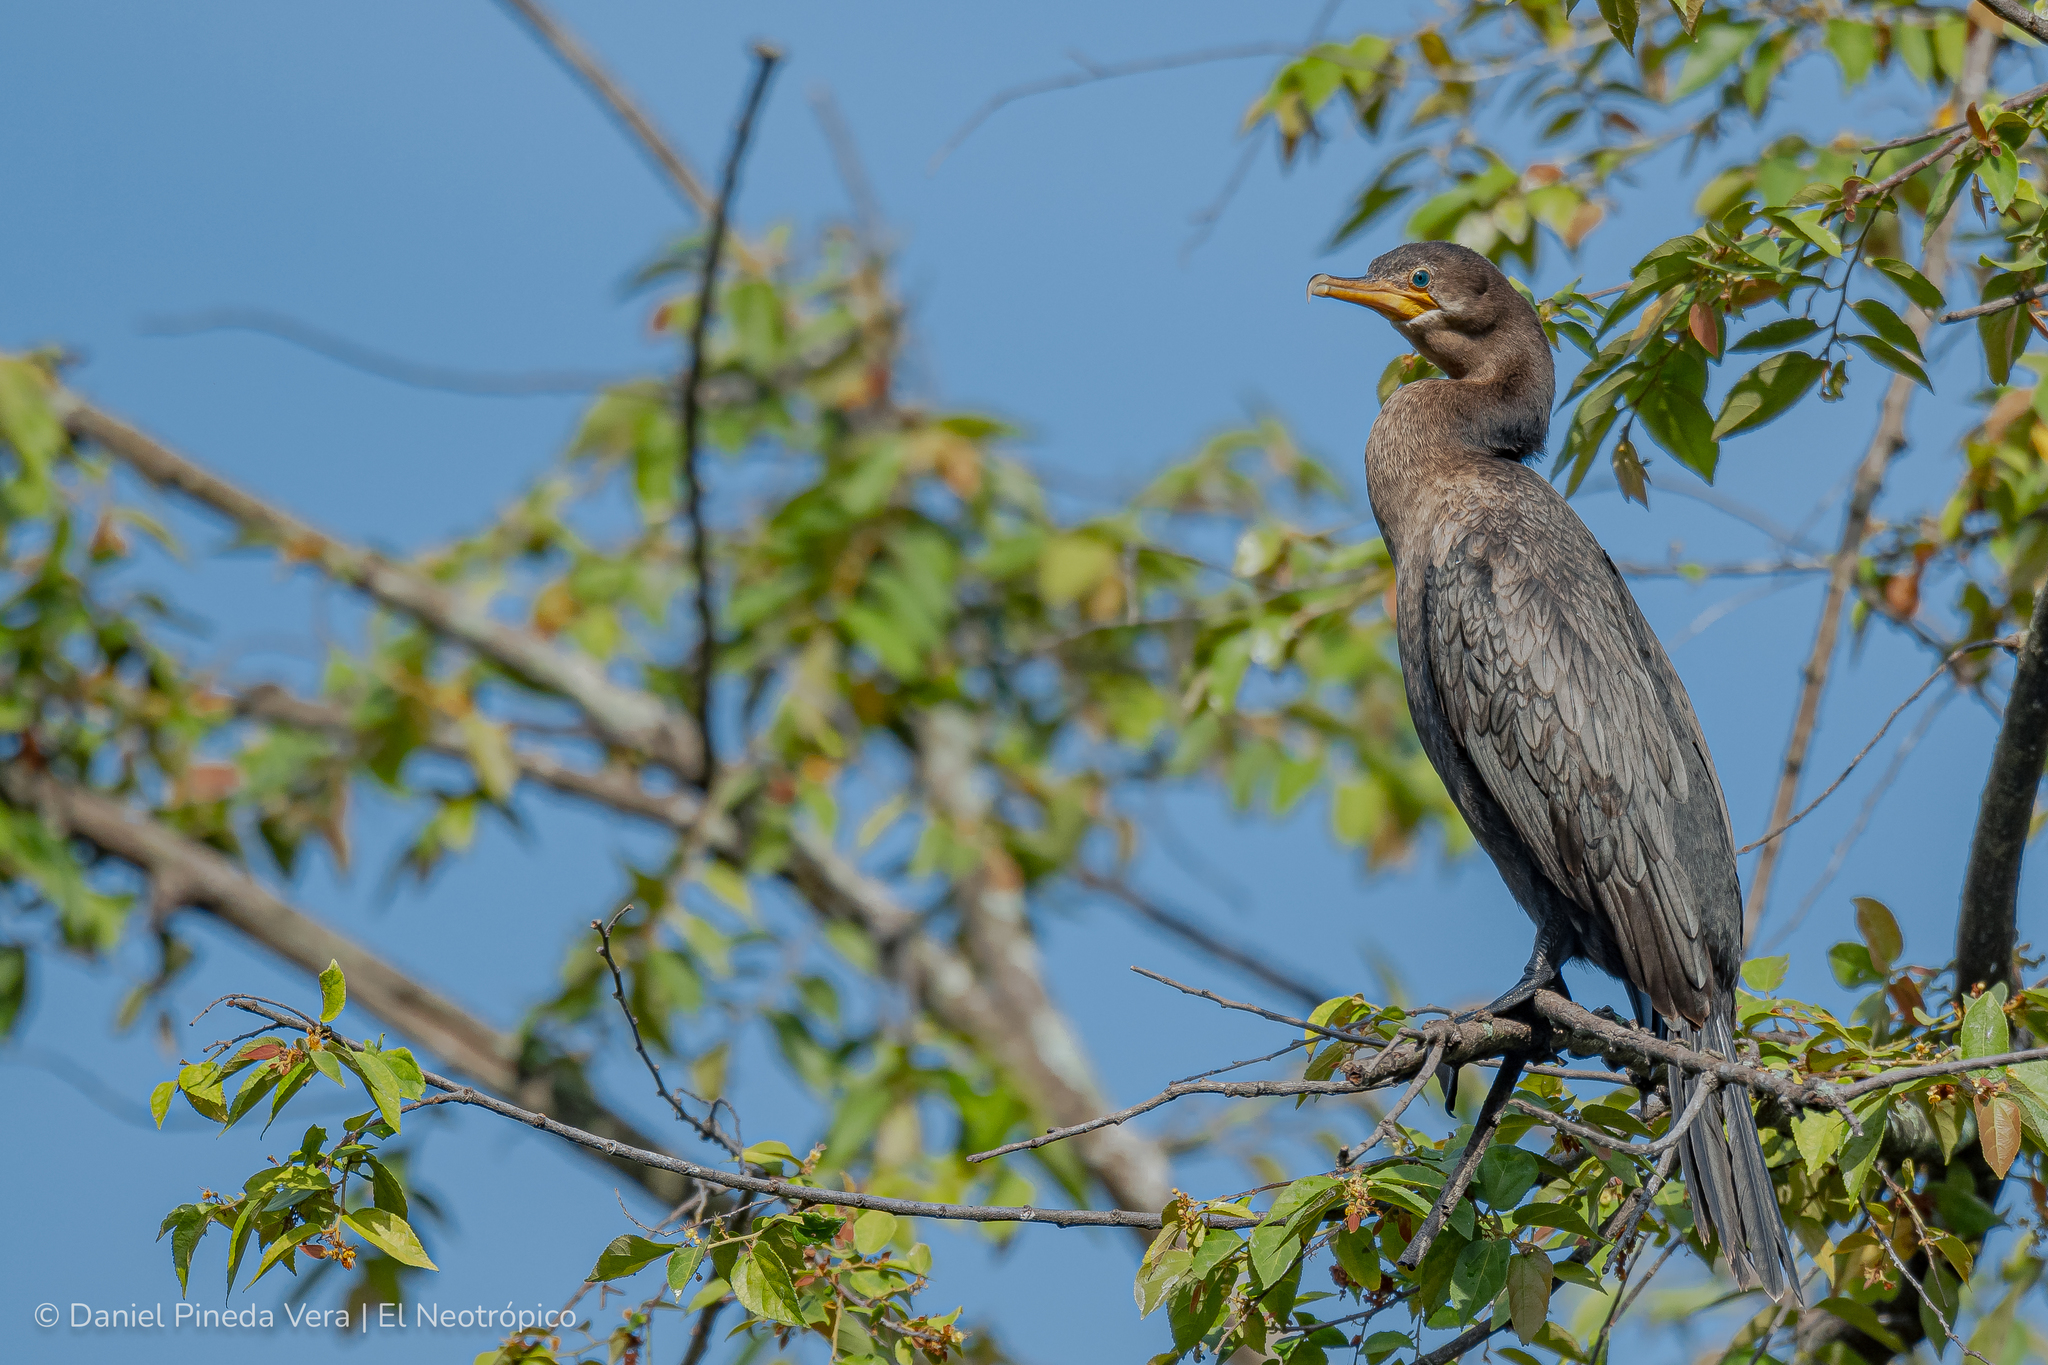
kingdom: Animalia
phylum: Chordata
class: Aves
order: Suliformes
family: Phalacrocoracidae
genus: Phalacrocorax
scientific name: Phalacrocorax brasilianus
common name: Neotropic cormorant
